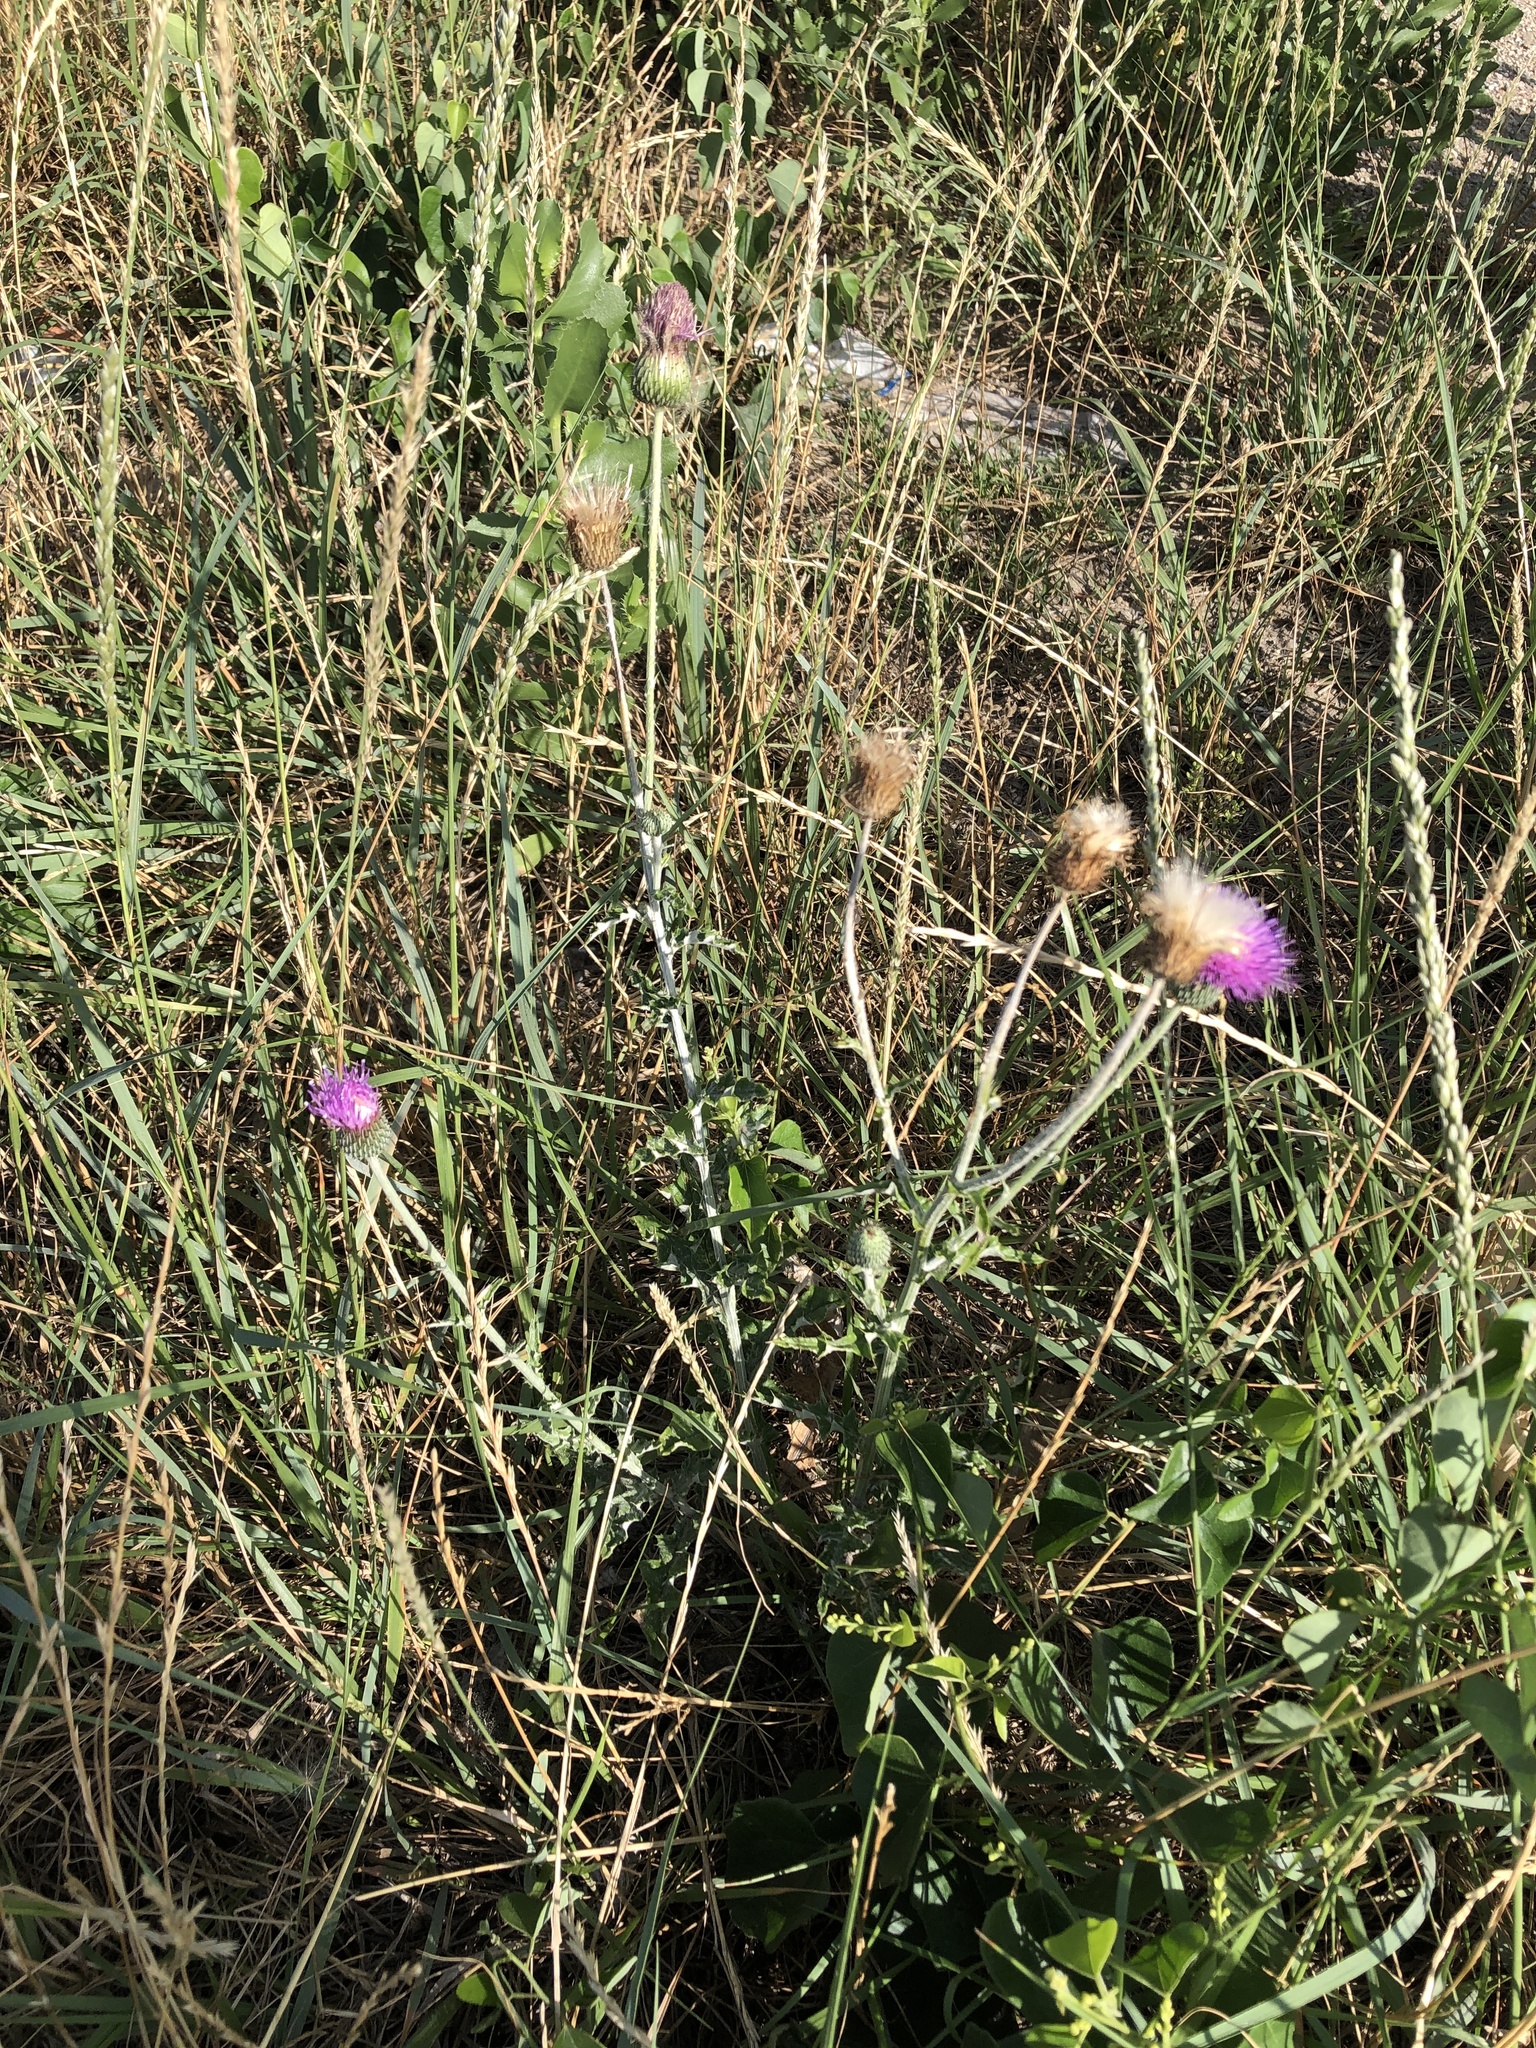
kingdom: Plantae
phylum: Tracheophyta
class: Magnoliopsida
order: Asterales
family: Asteraceae
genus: Cirsium
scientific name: Cirsium texanum
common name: Texas purple thistle
